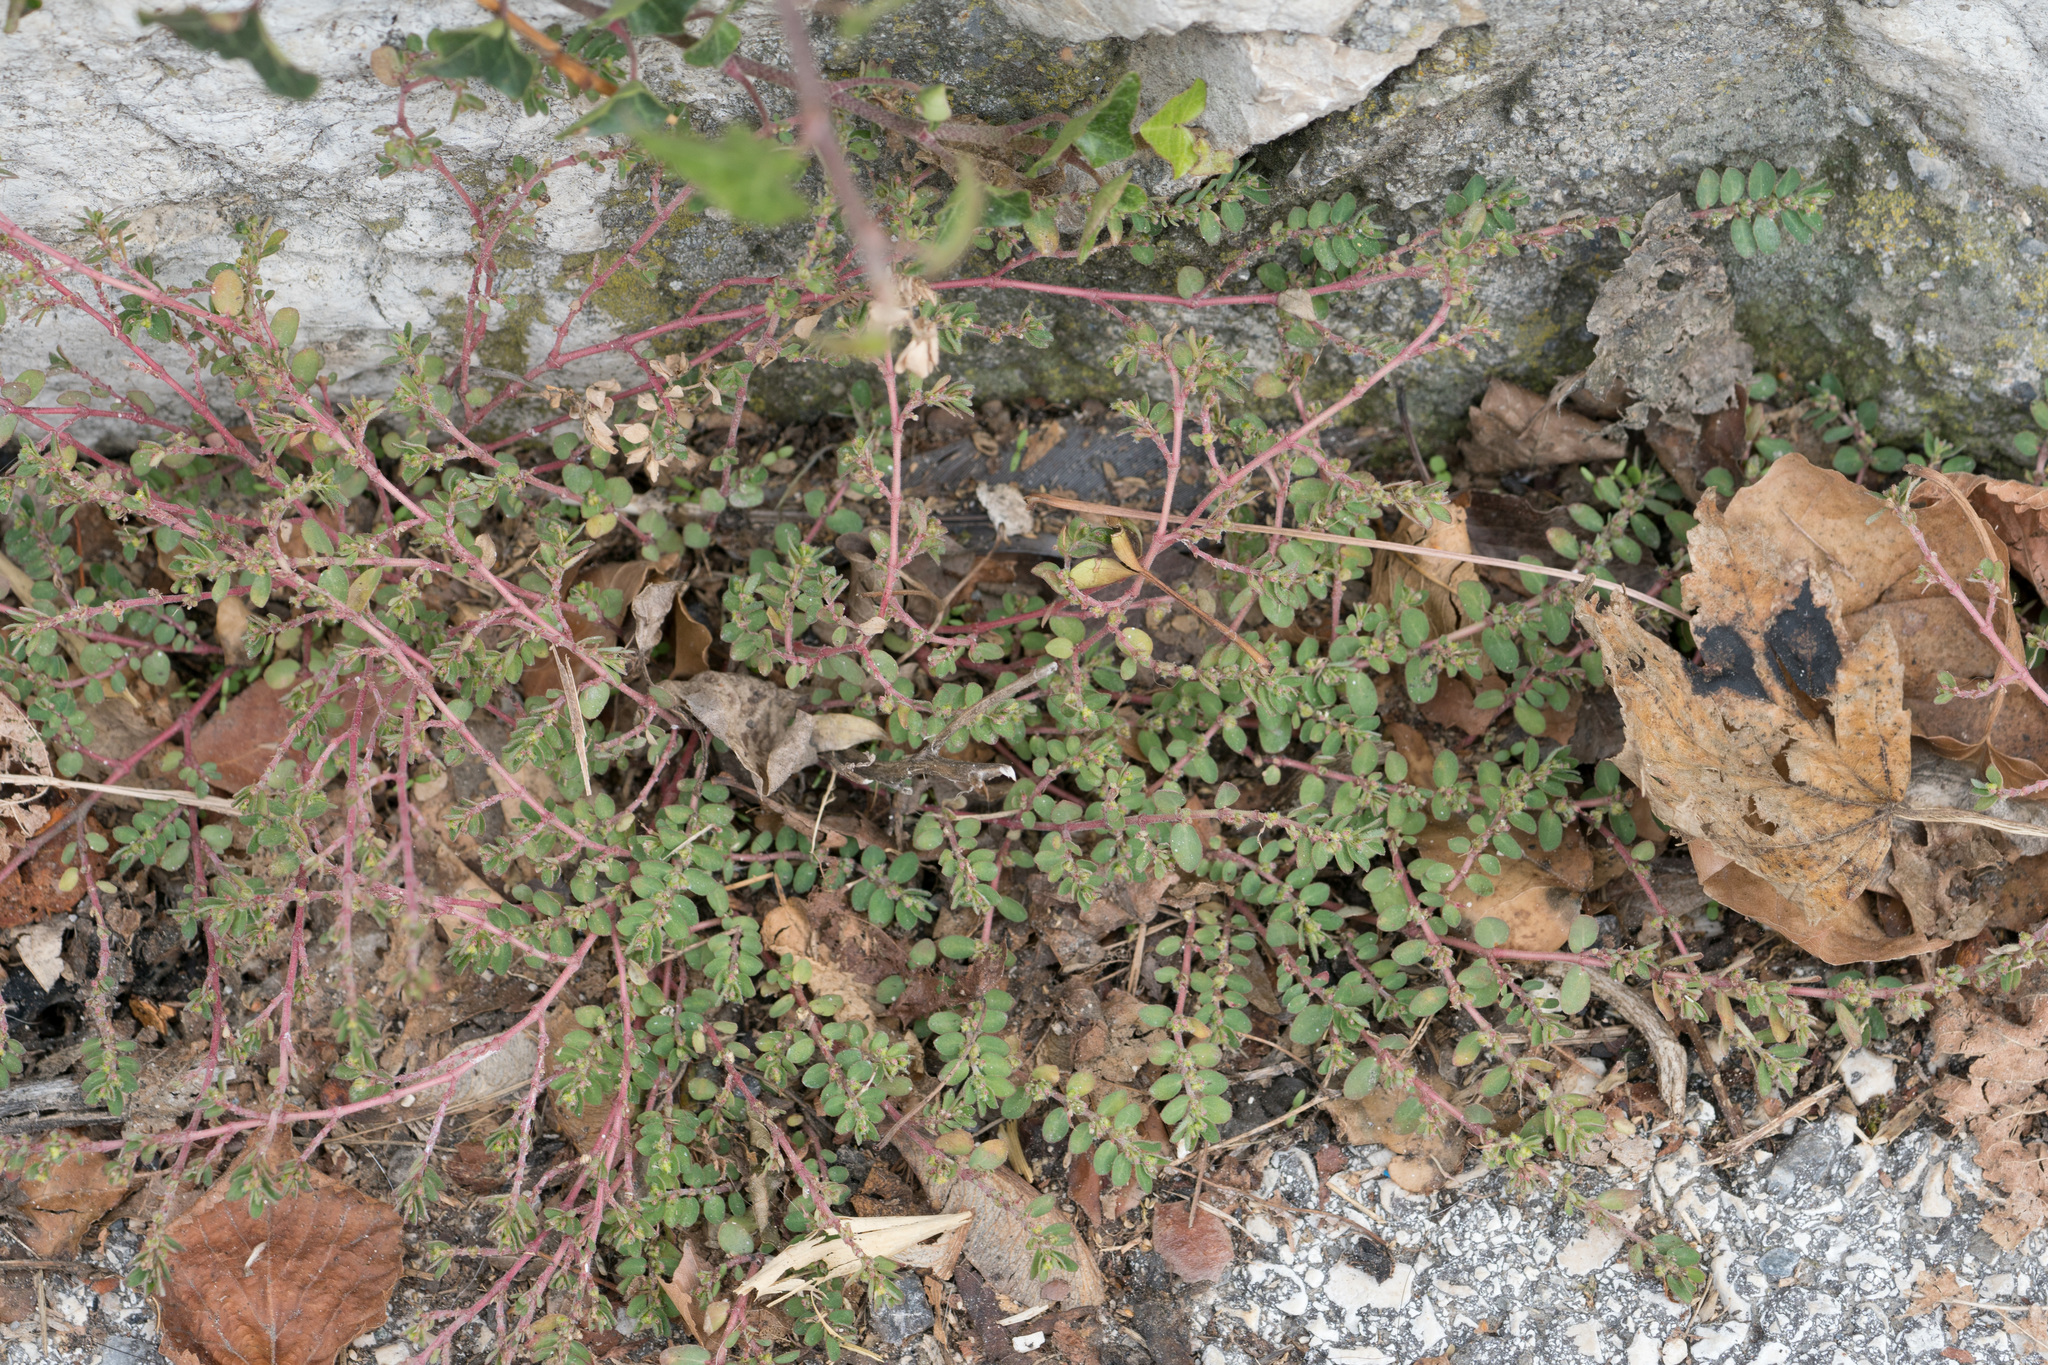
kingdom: Plantae
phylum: Tracheophyta
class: Magnoliopsida
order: Malpighiales
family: Euphorbiaceae
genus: Euphorbia
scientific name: Euphorbia prostrata
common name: Prostrate sandmat
